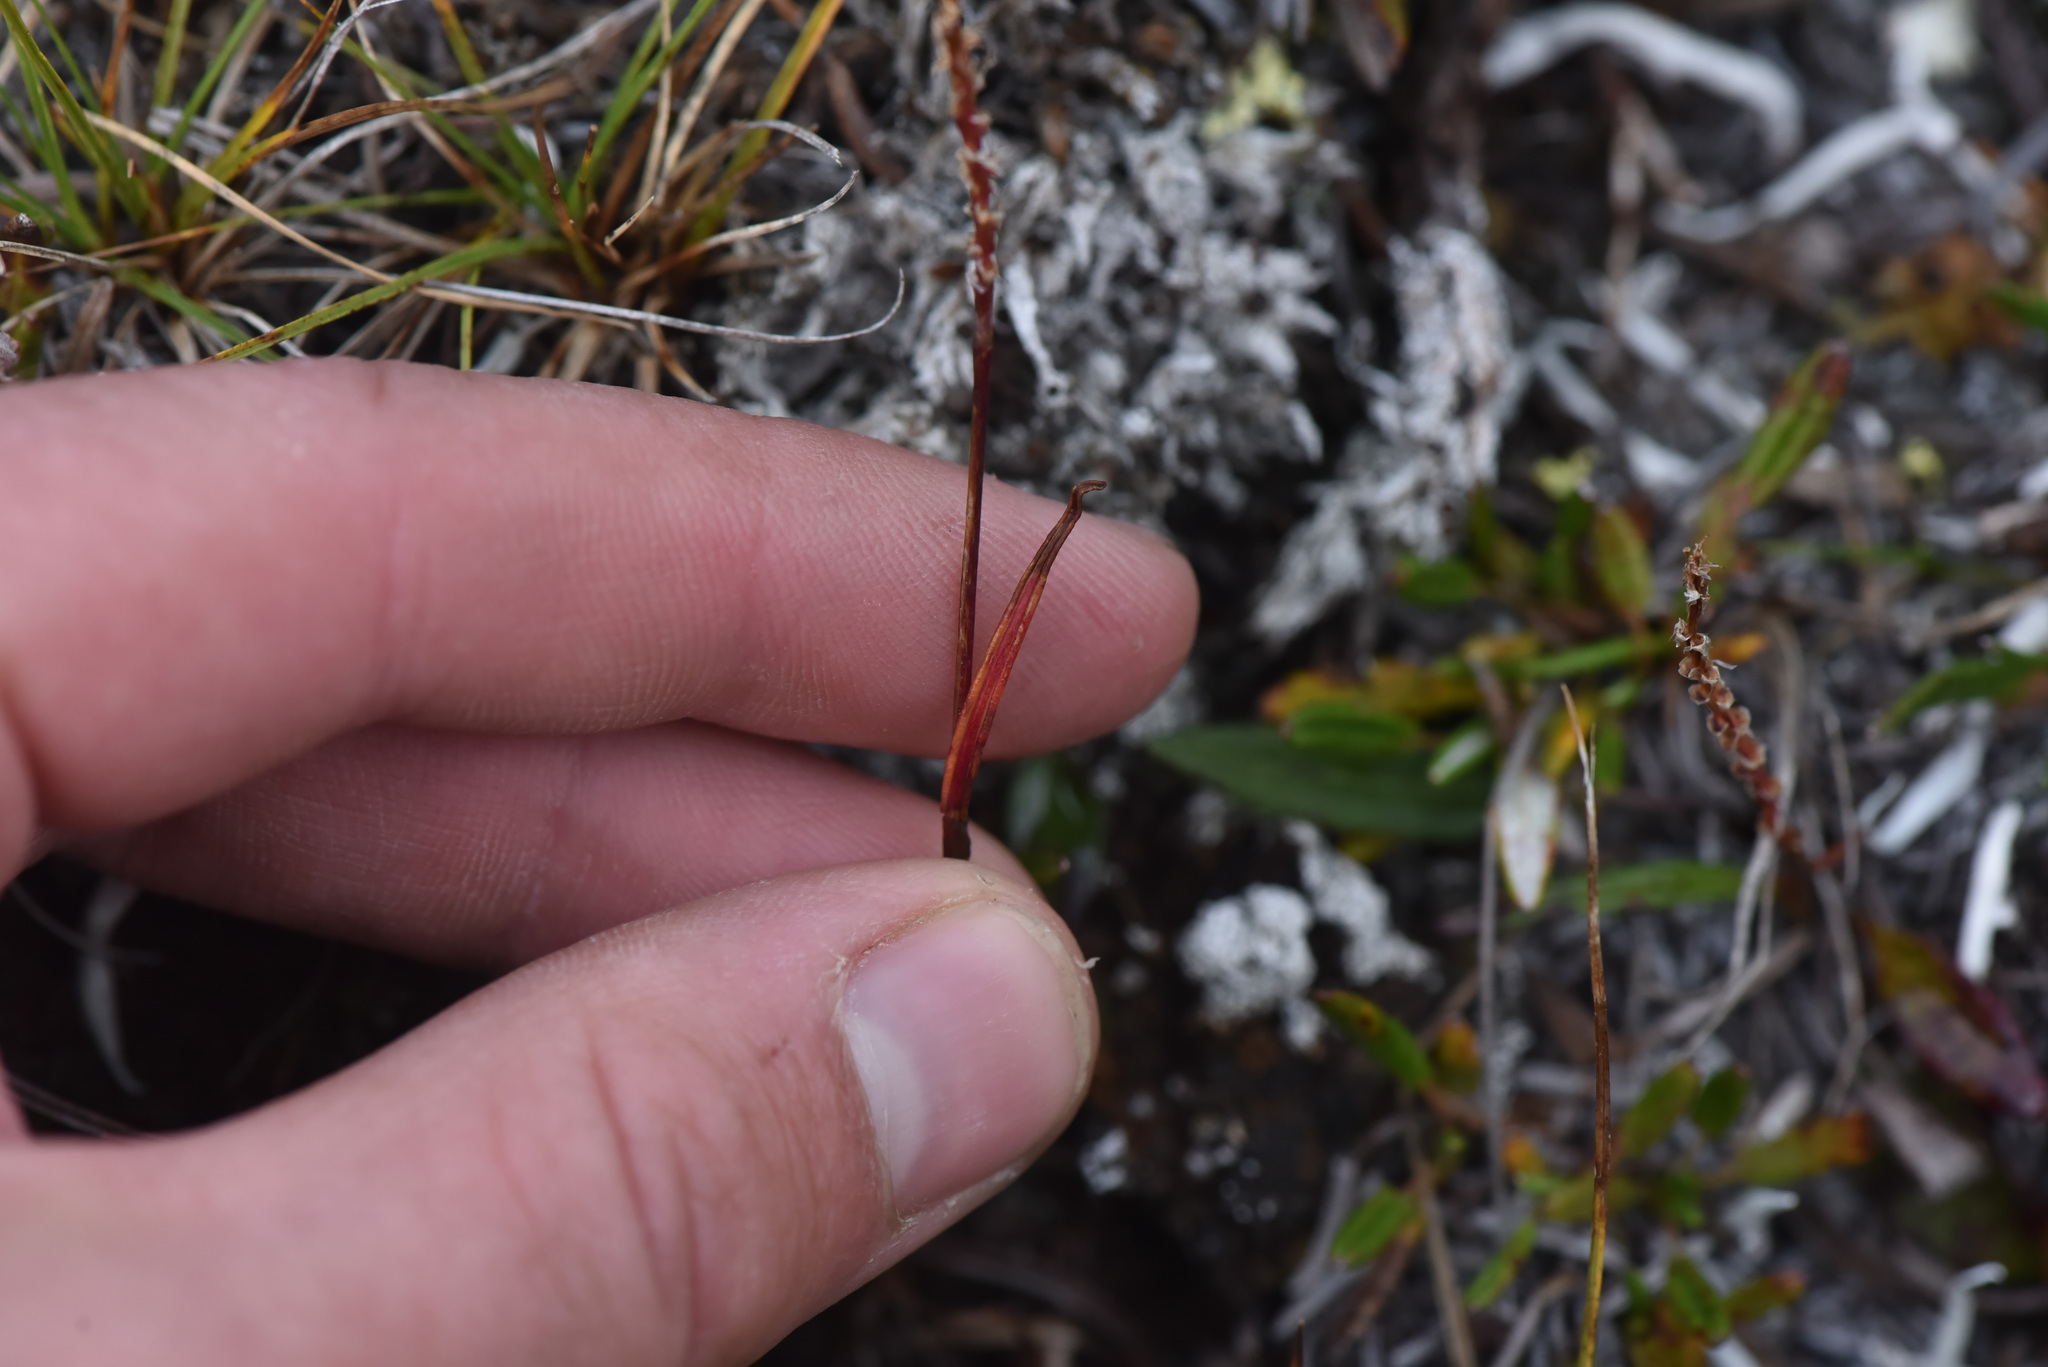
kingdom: Plantae
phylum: Tracheophyta
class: Magnoliopsida
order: Caryophyllales
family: Polygonaceae
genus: Bistorta
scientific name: Bistorta vivipara
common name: Alpine bistort
